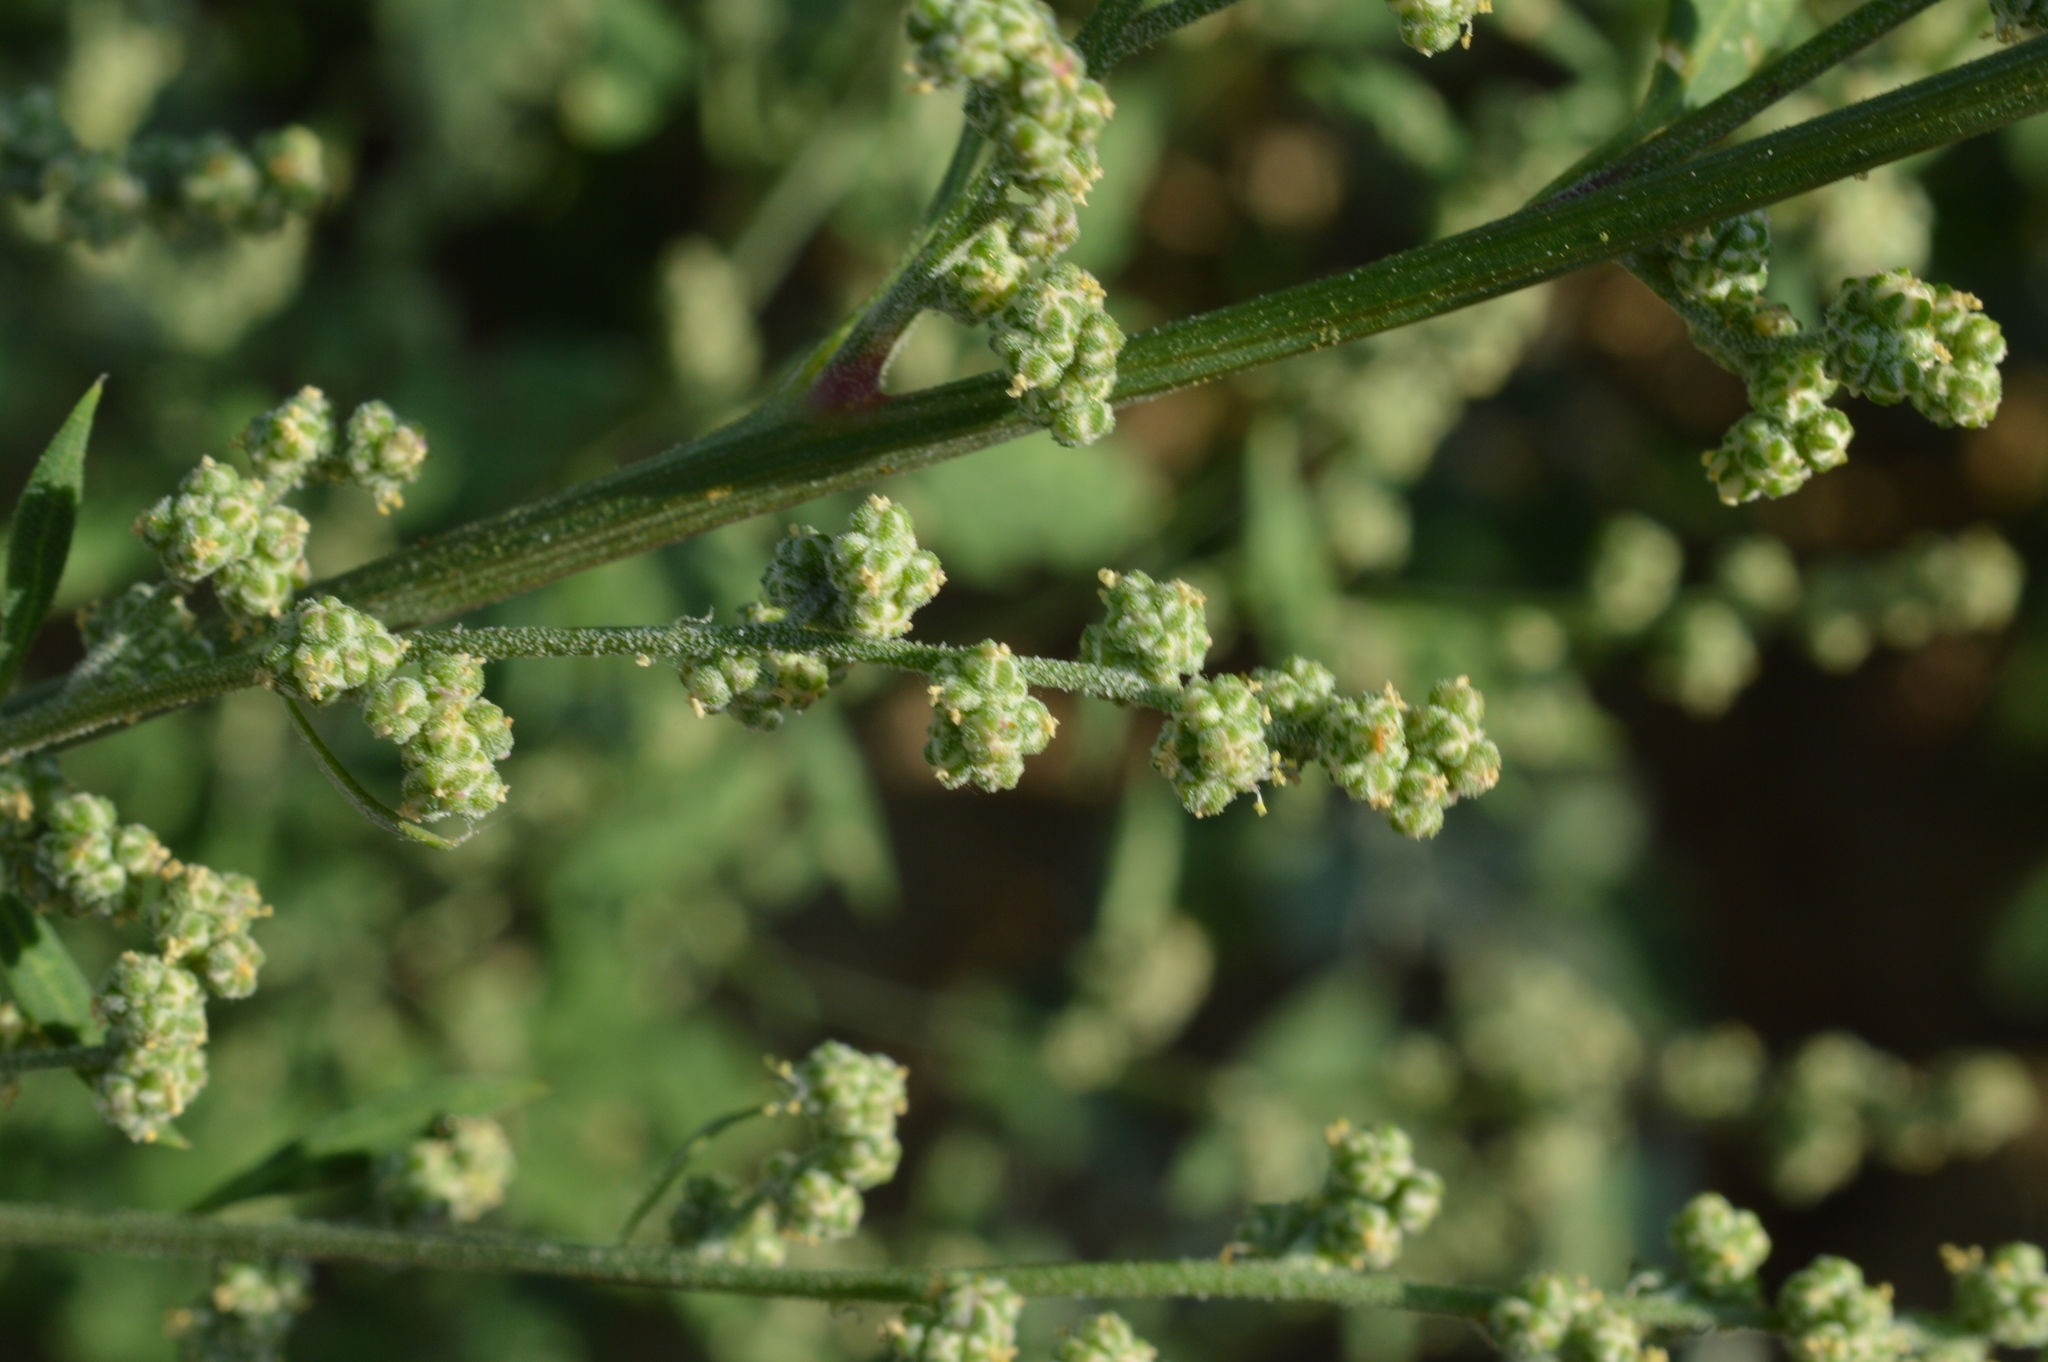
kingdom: Plantae
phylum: Tracheophyta
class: Magnoliopsida
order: Caryophyllales
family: Amaranthaceae
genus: Chenopodium
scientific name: Chenopodium album
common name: Fat-hen
